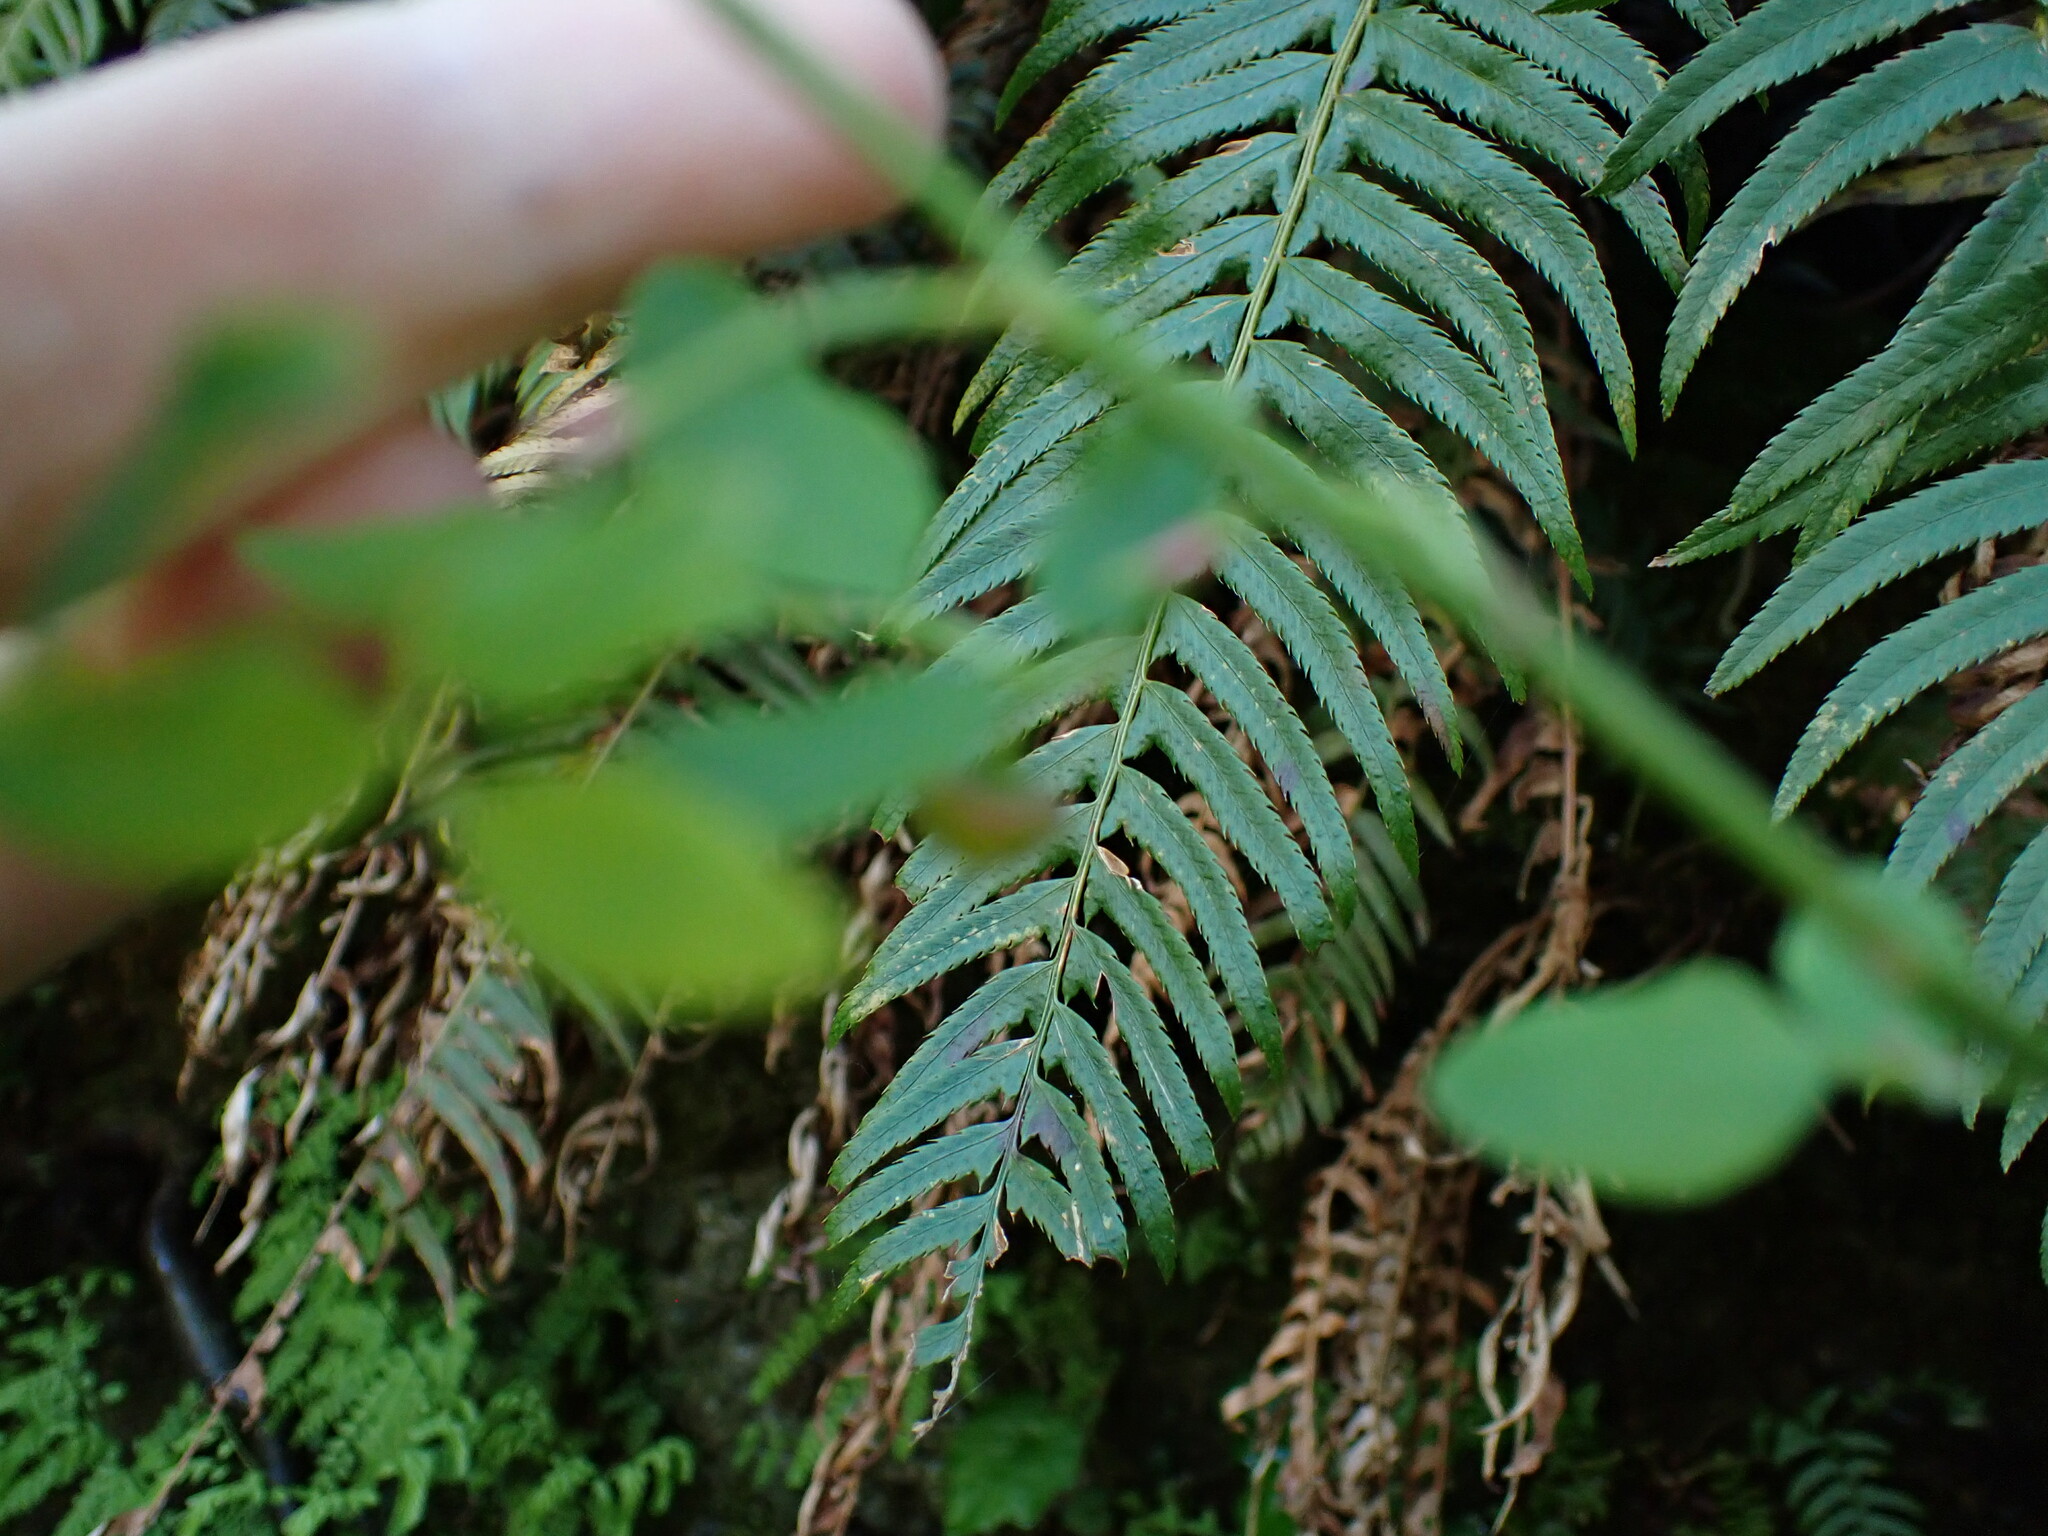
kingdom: Plantae
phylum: Tracheophyta
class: Polypodiopsida
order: Polypodiales
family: Dryopteridaceae
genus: Polystichum
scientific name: Polystichum munitum
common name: Western sword-fern
